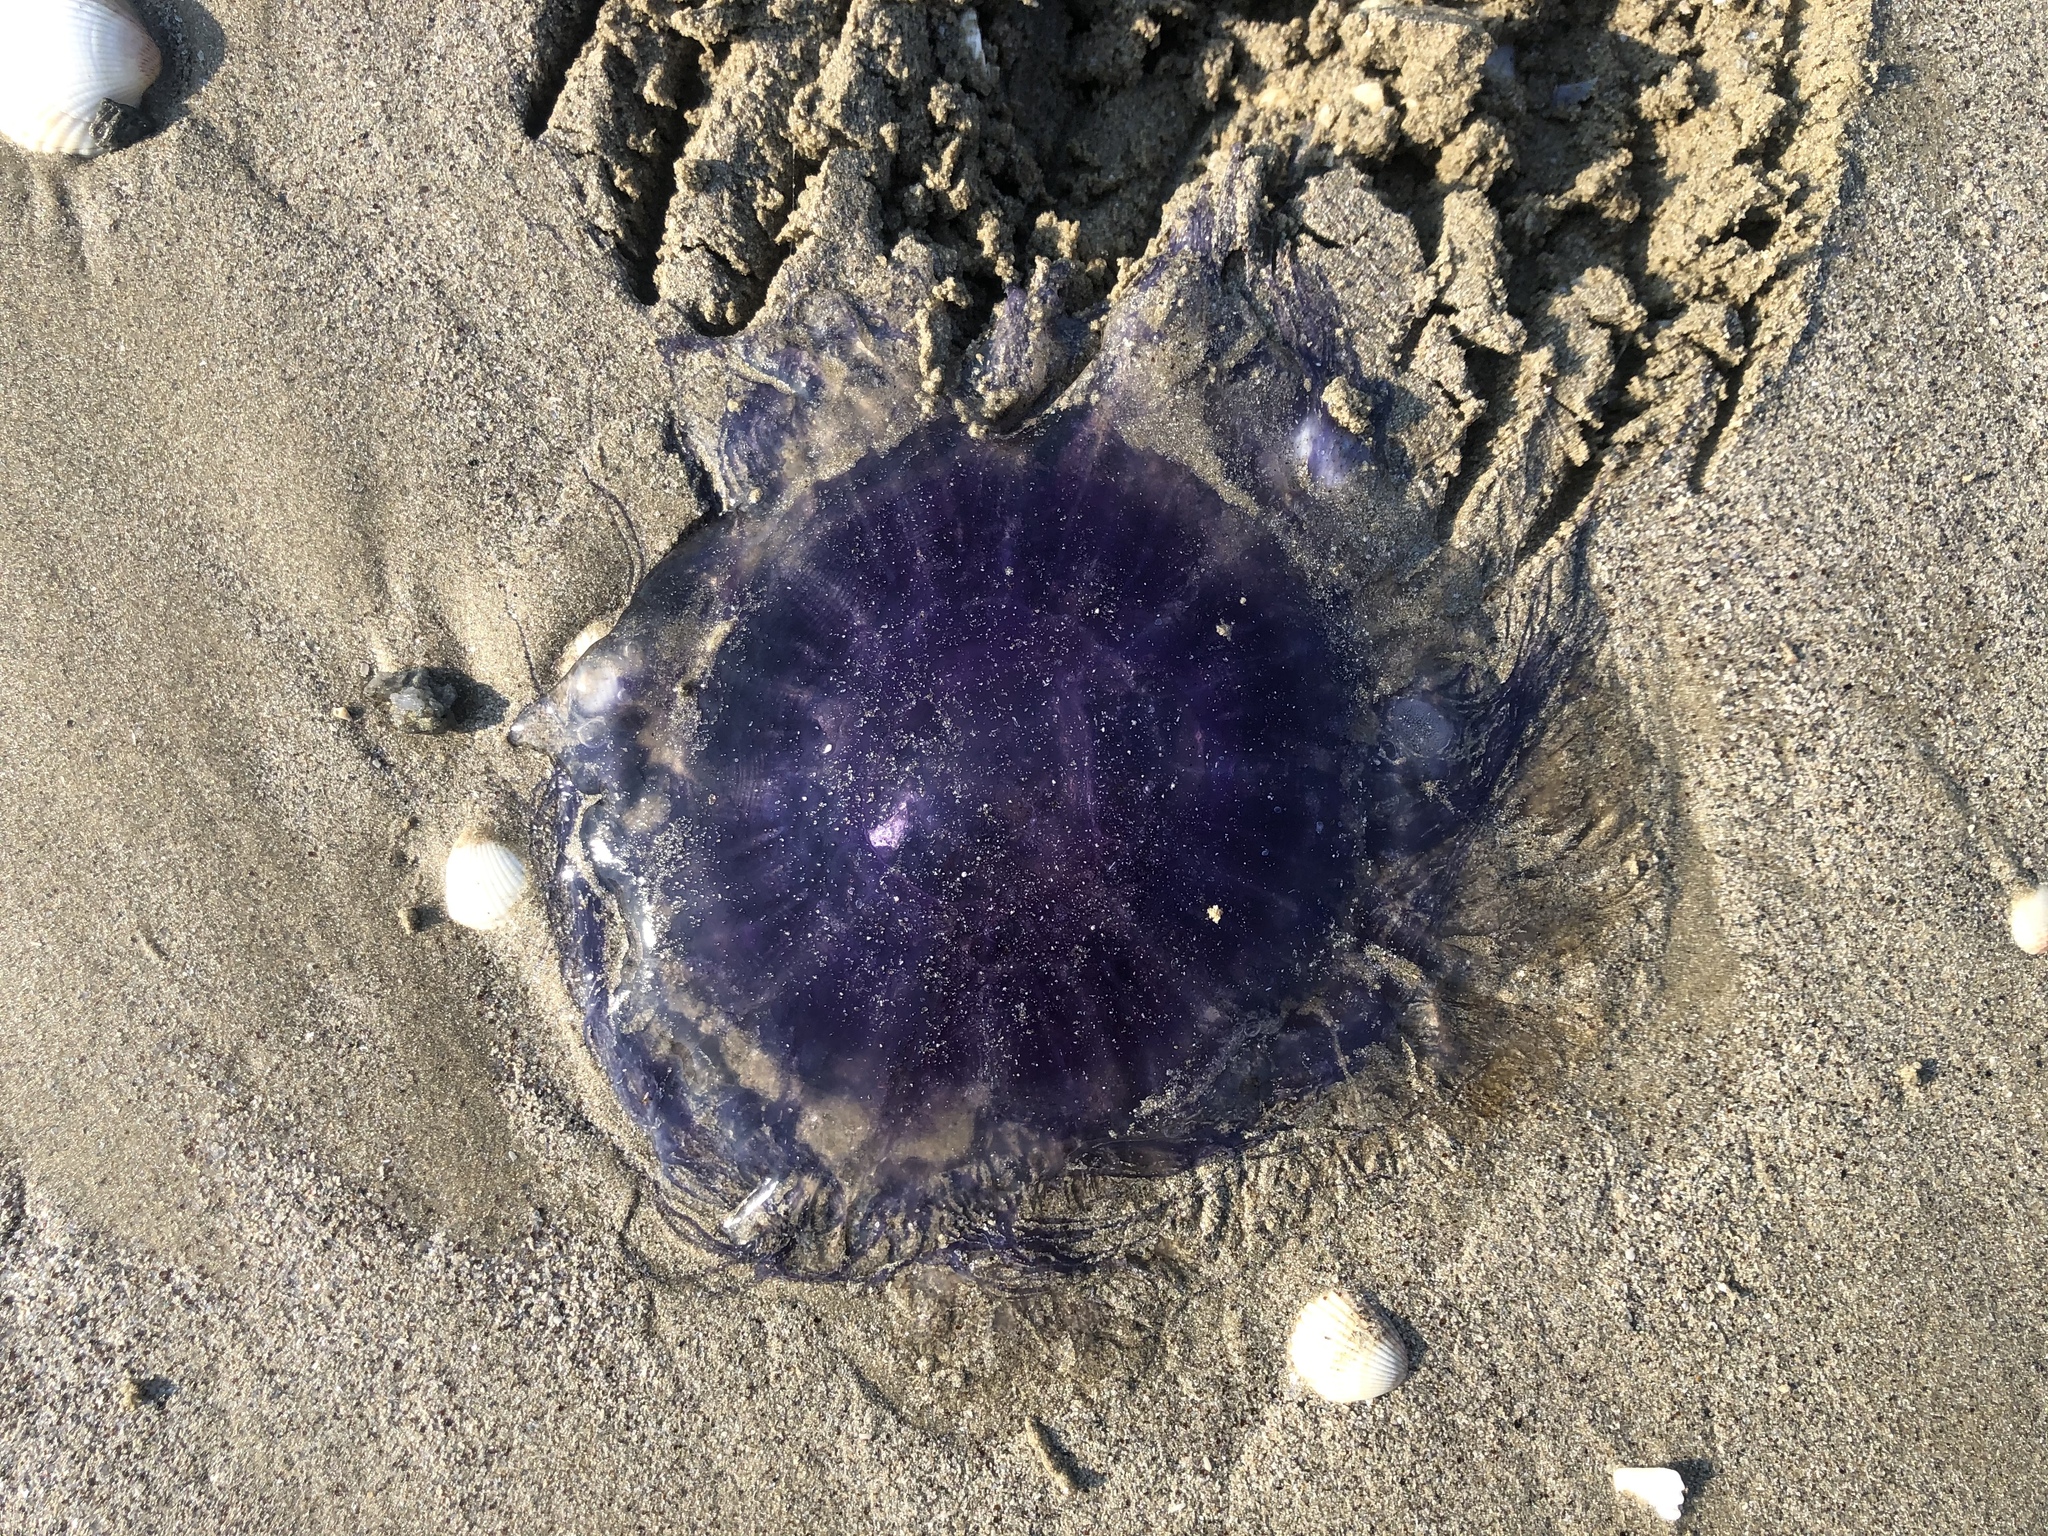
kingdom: Animalia
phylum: Cnidaria
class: Scyphozoa
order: Semaeostomeae
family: Cyaneidae
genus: Cyanea
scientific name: Cyanea lamarckii
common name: Blue jellyfish
